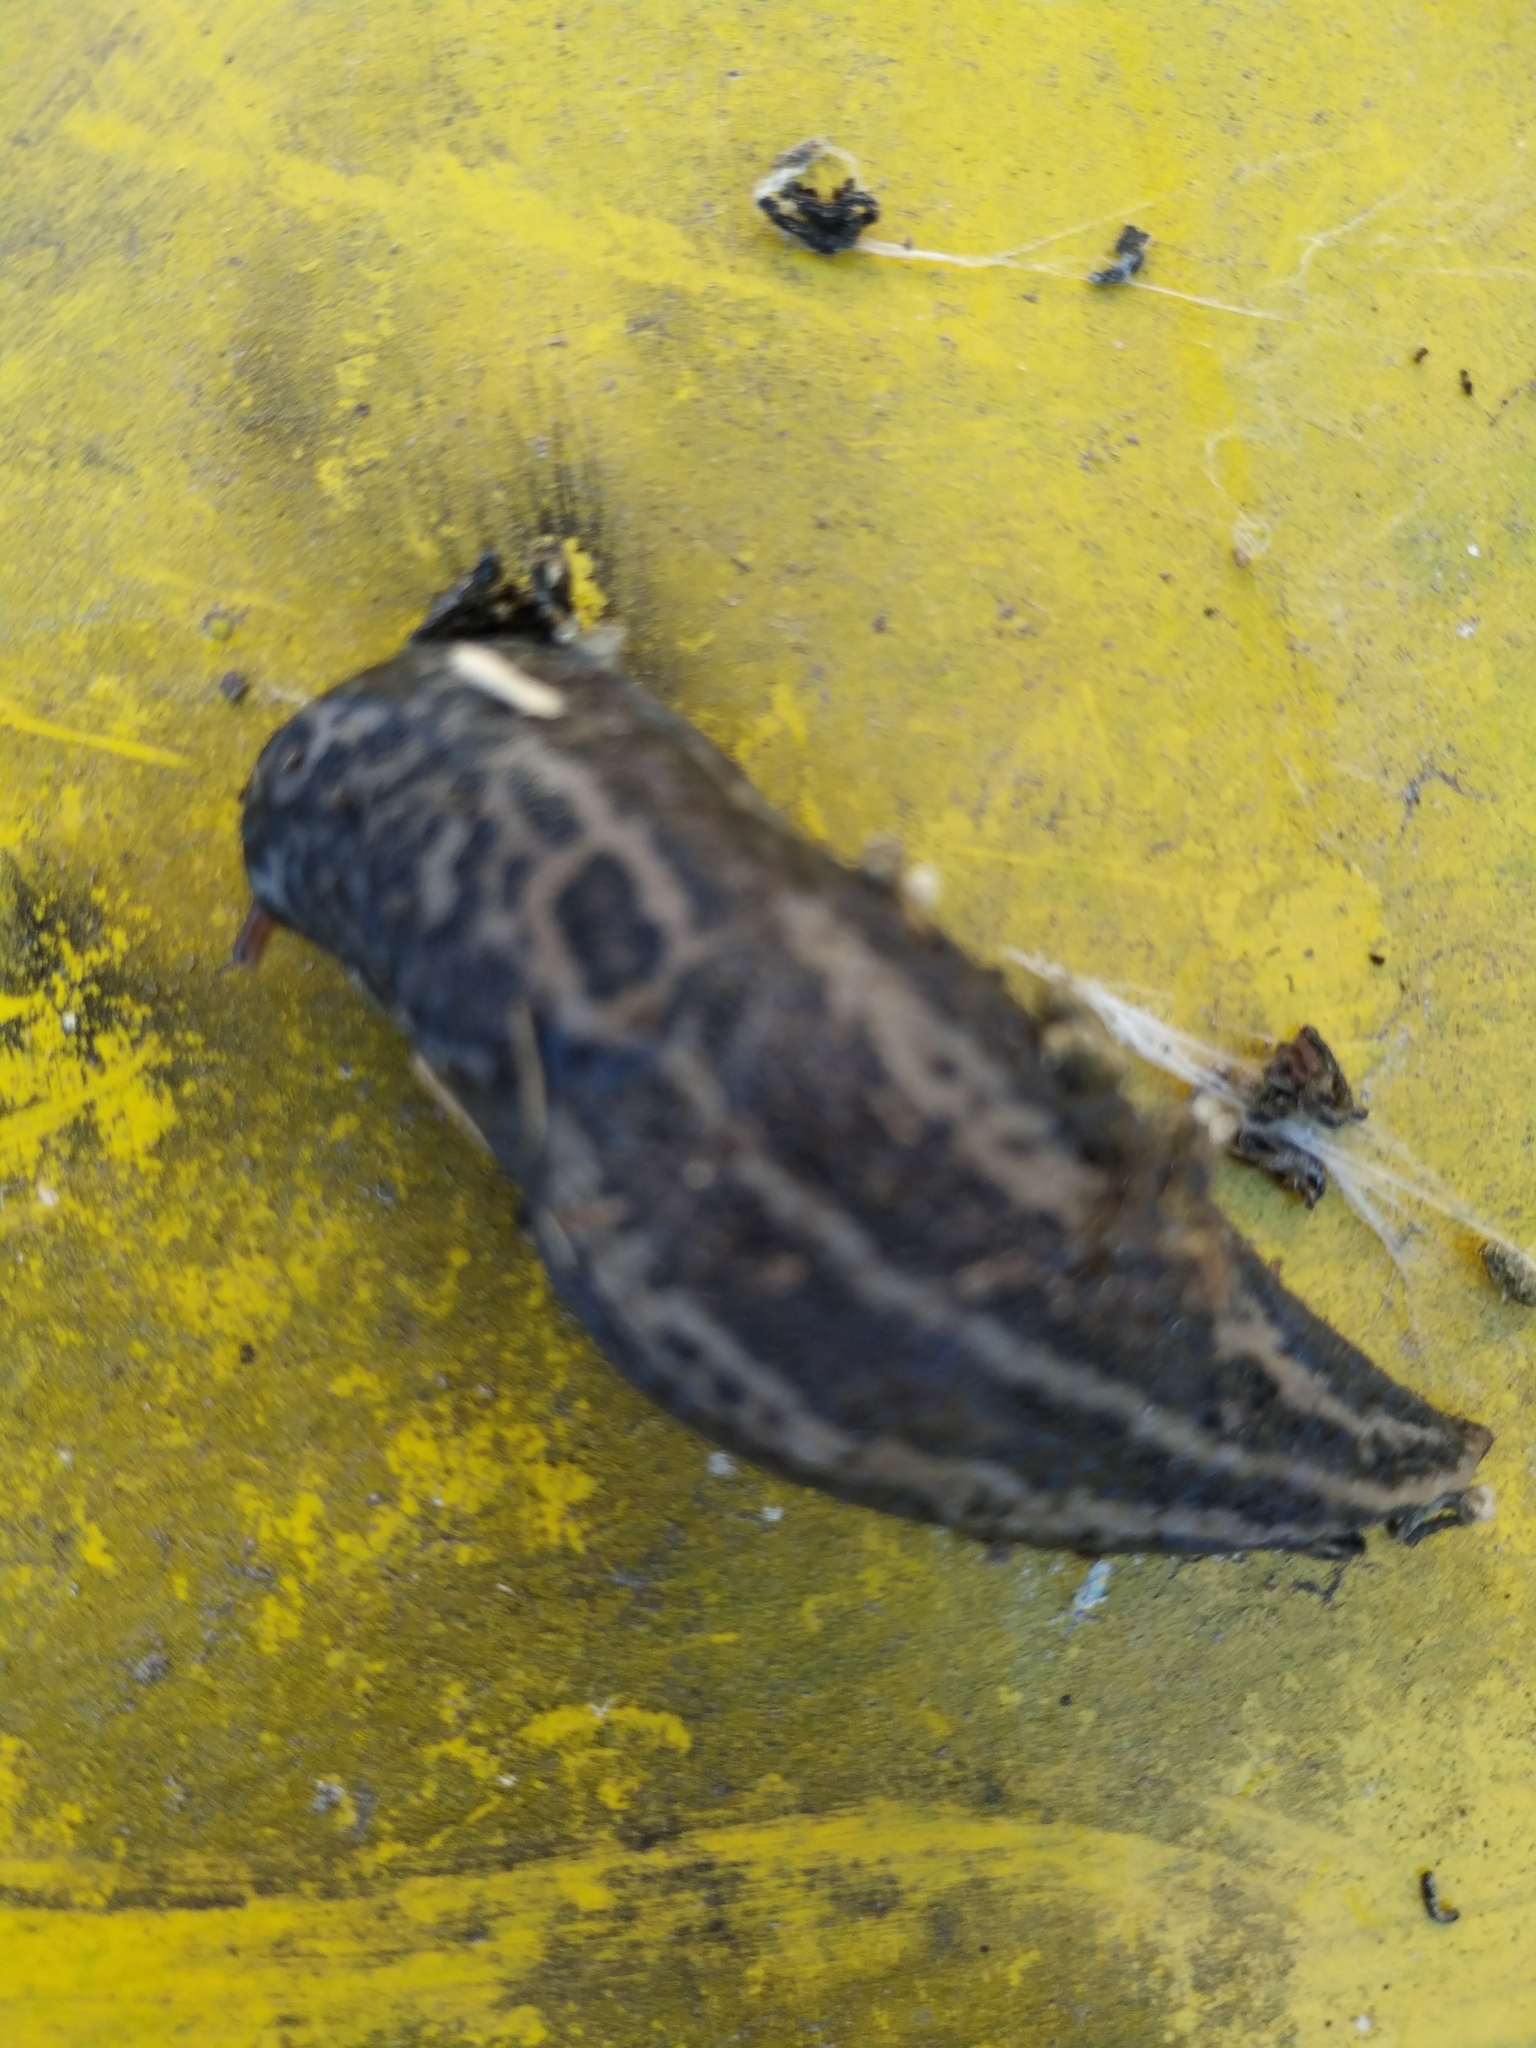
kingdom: Animalia
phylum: Mollusca
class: Gastropoda
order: Stylommatophora
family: Limacidae
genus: Limax
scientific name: Limax maximus
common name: Great grey slug
